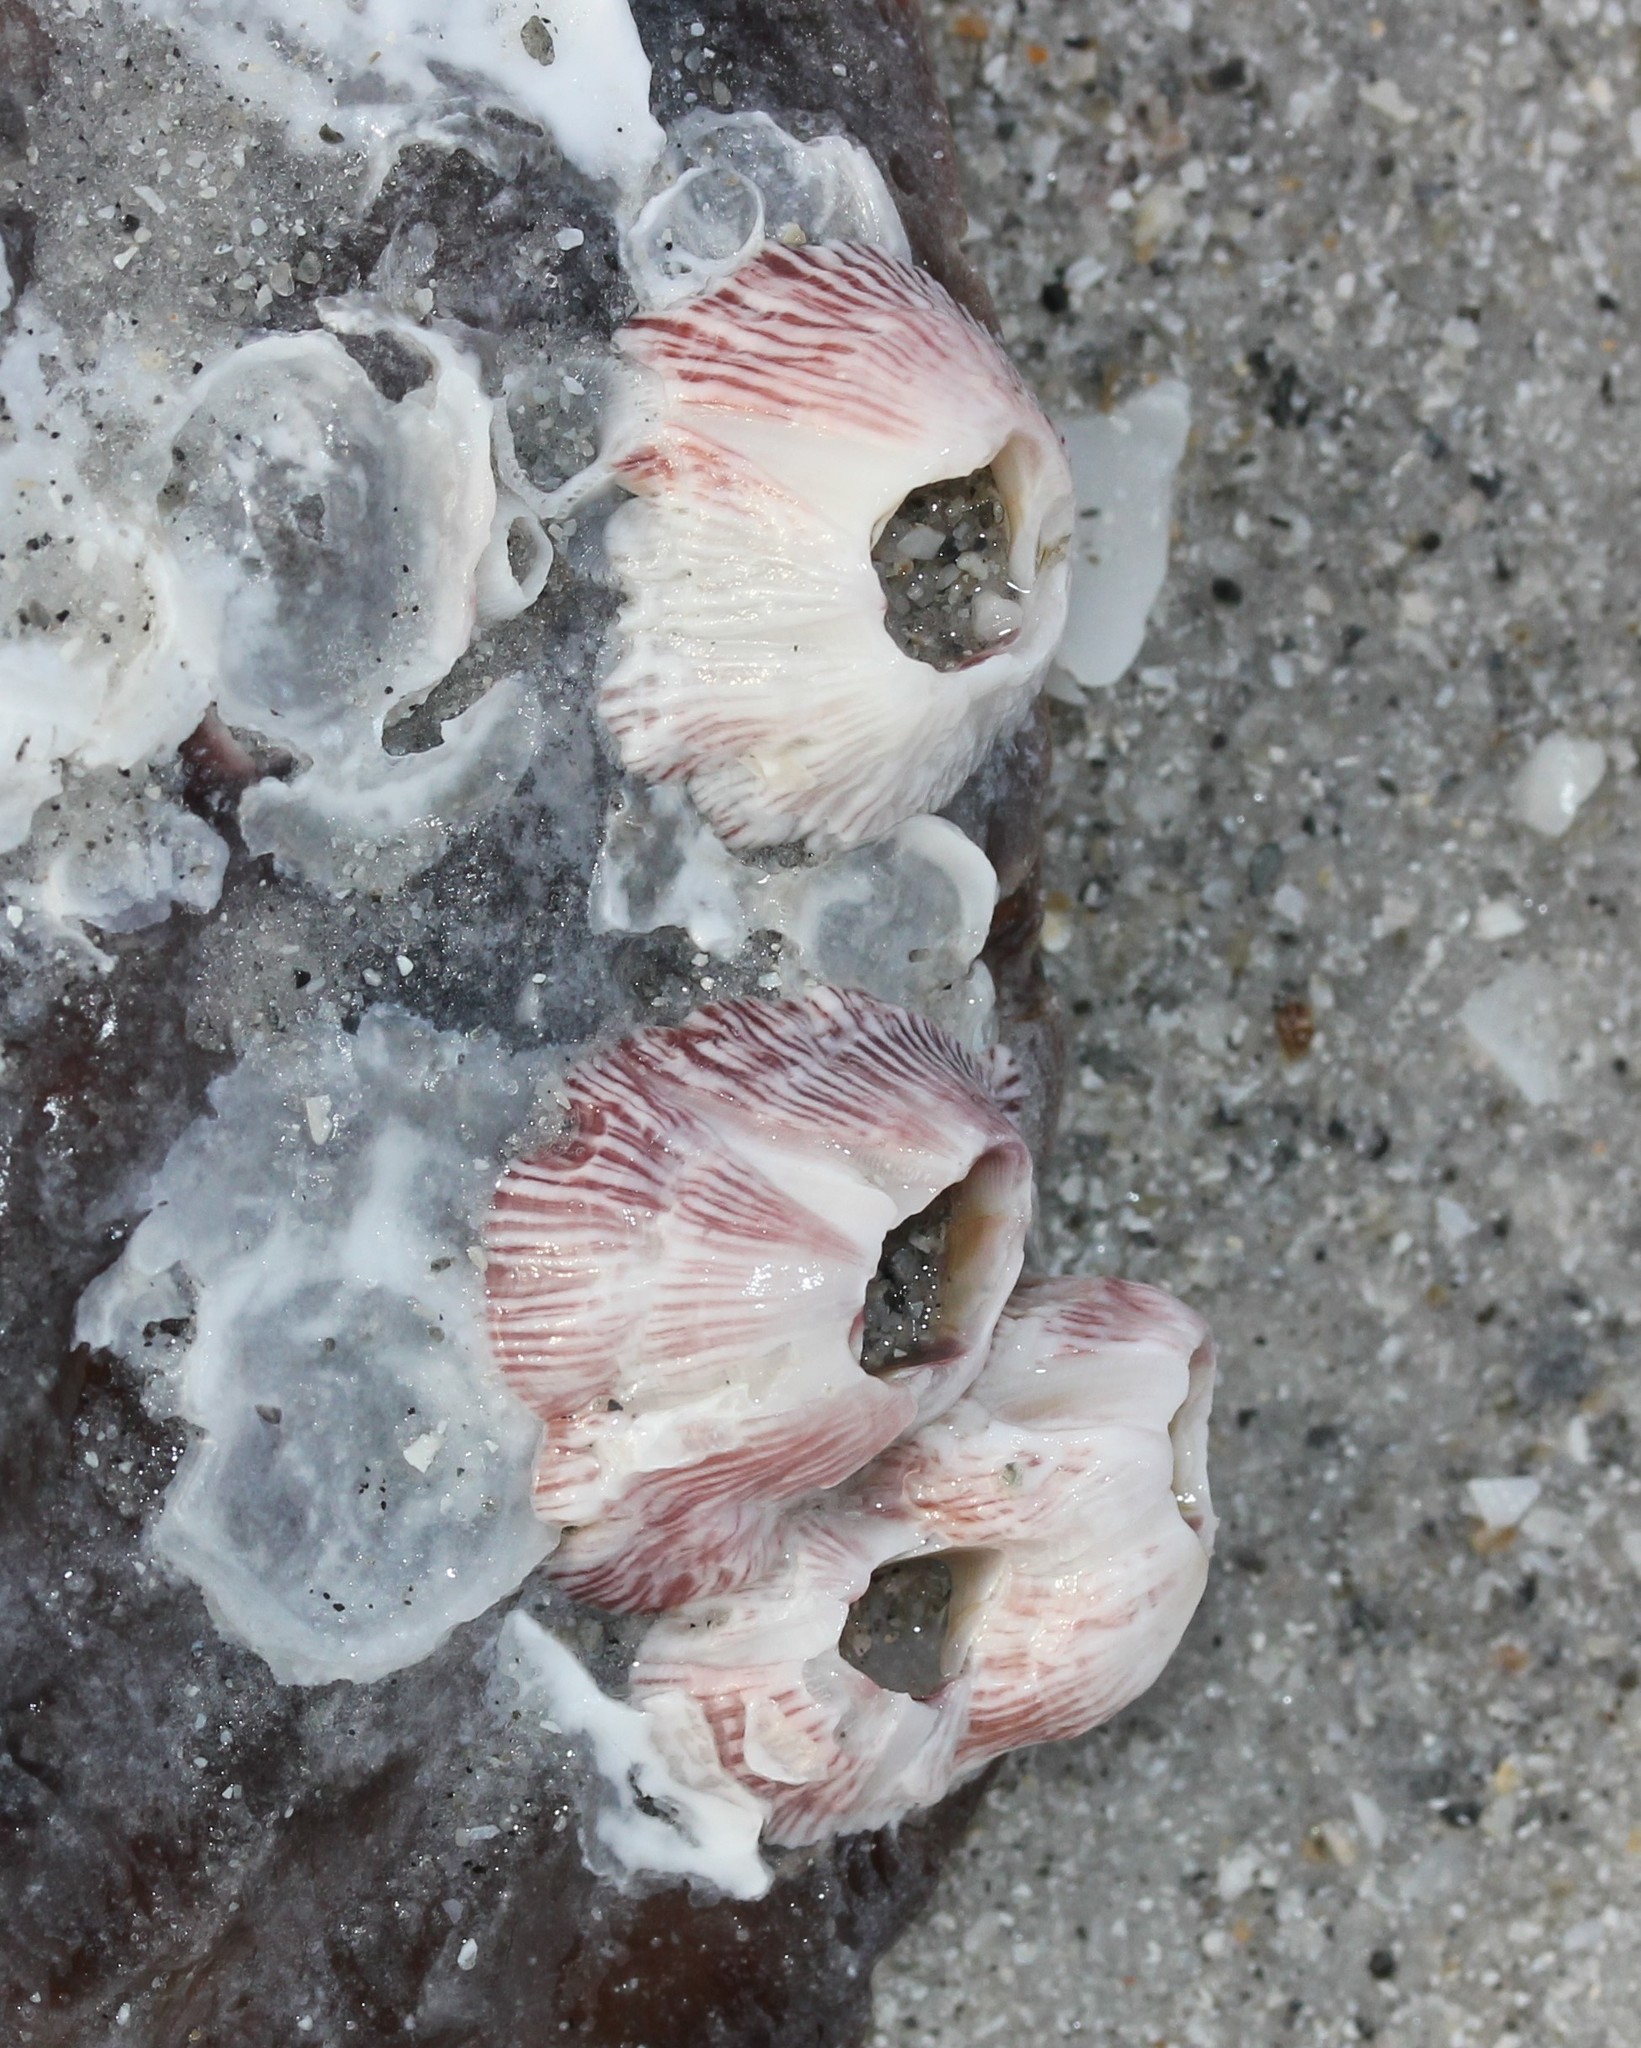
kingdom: Animalia
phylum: Arthropoda
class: Maxillopoda
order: Sessilia
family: Balanidae
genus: Balanus
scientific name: Balanus trigonus
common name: Triangle barnacle
